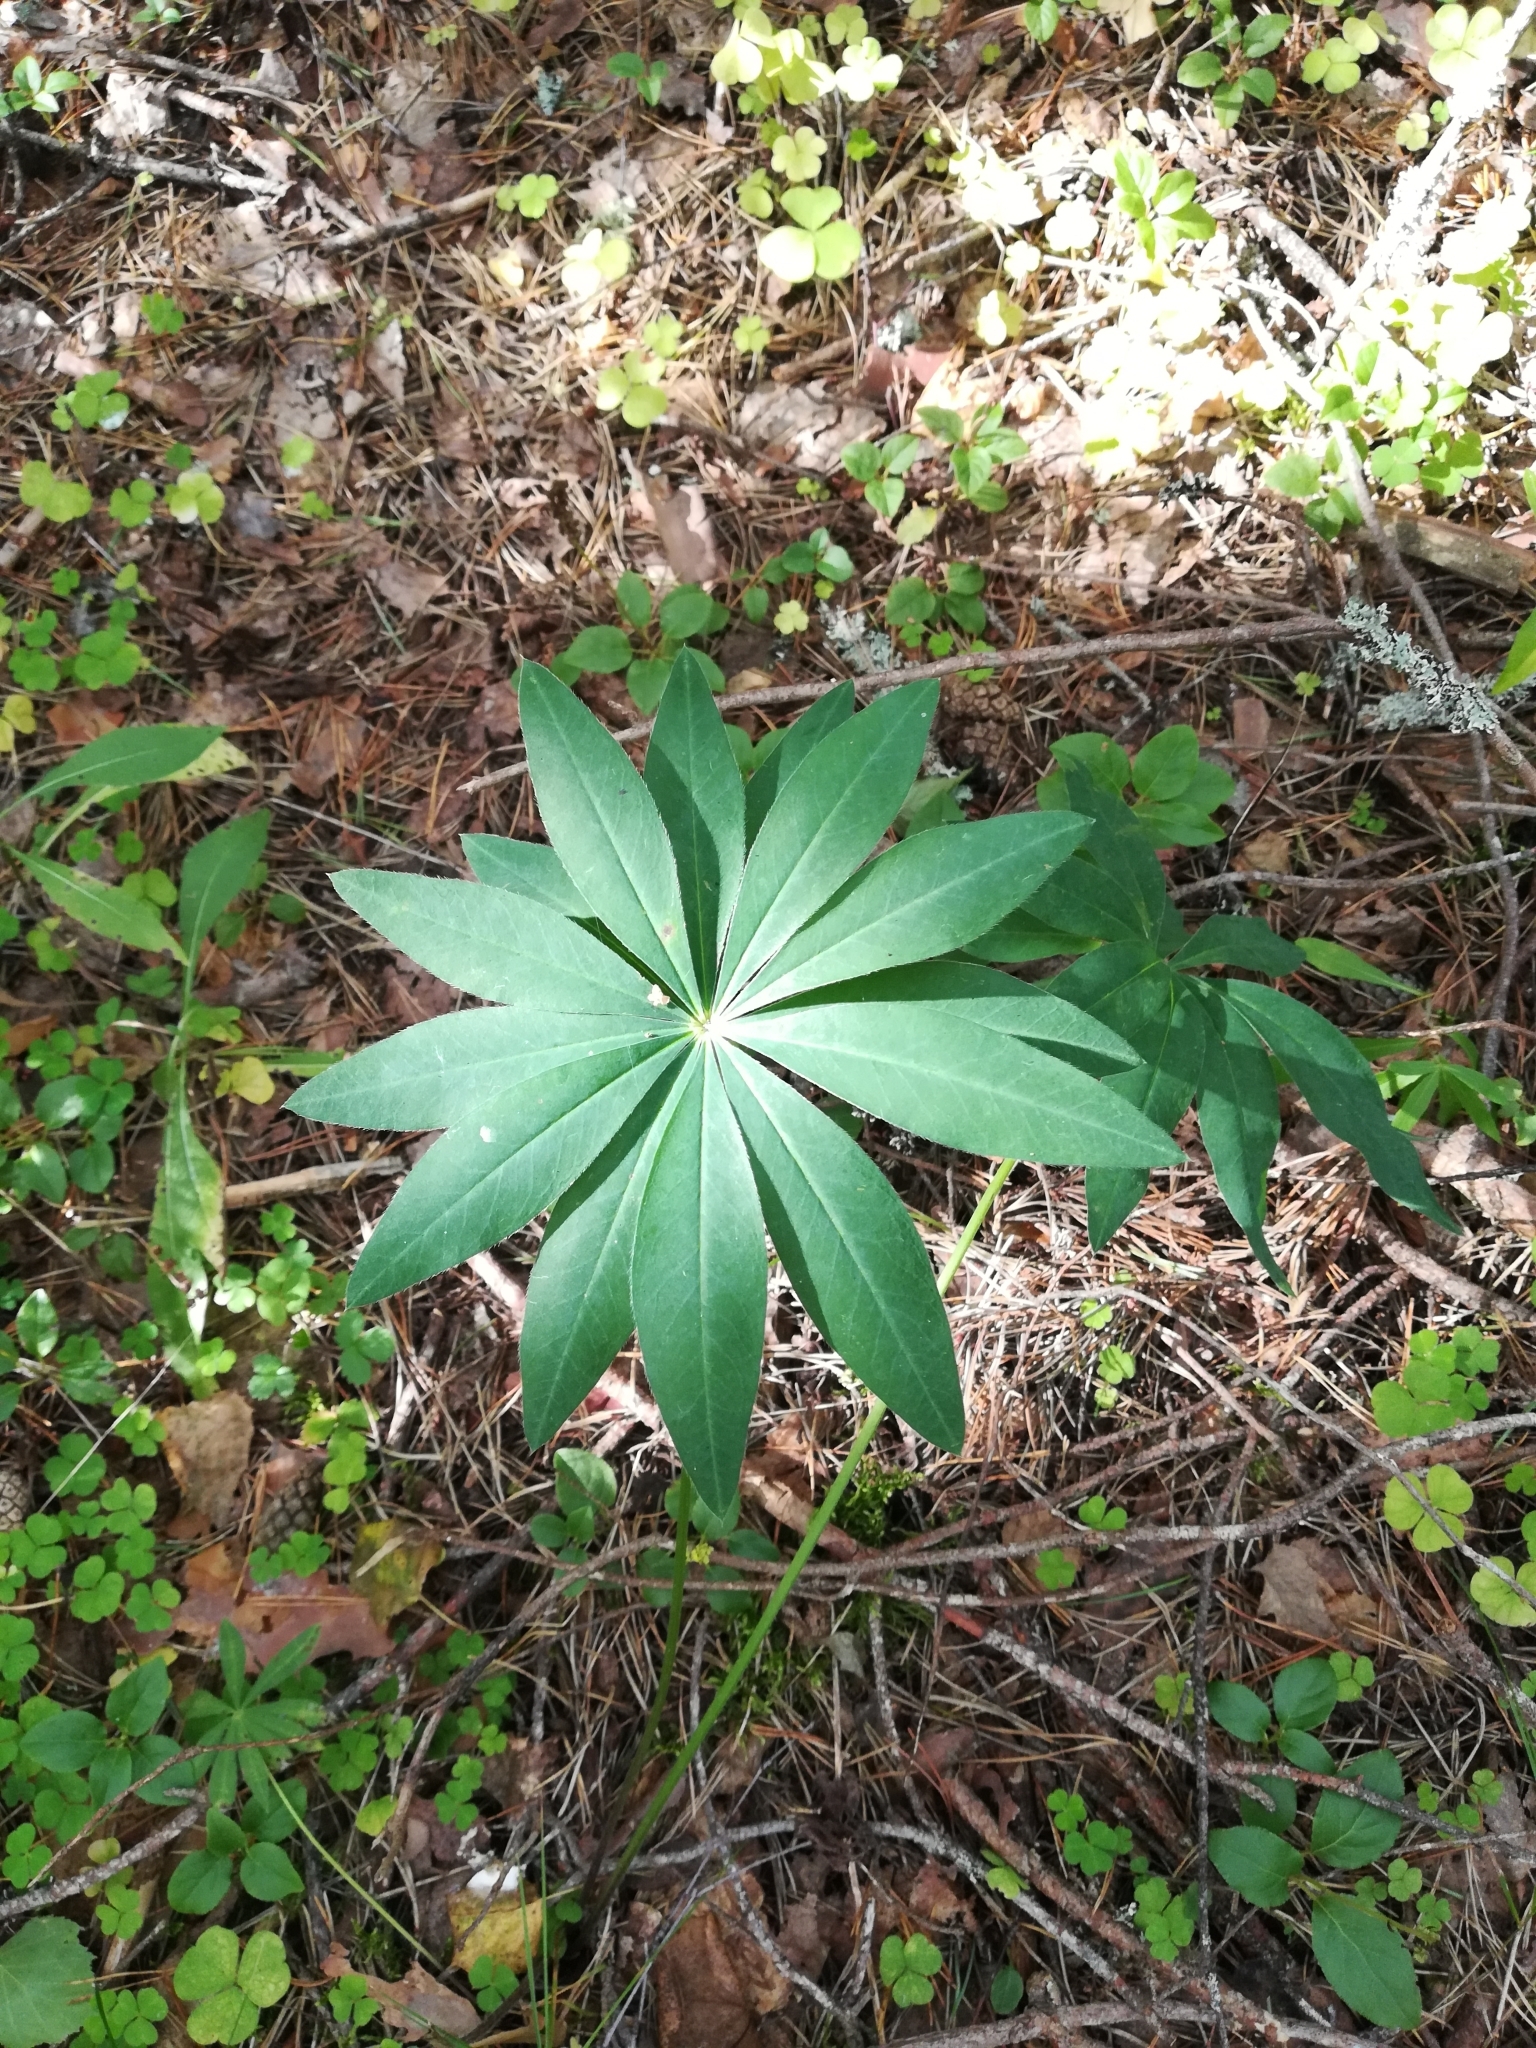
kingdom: Plantae
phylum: Tracheophyta
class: Magnoliopsida
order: Fabales
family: Fabaceae
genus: Lupinus
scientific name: Lupinus polyphyllus
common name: Garden lupin
